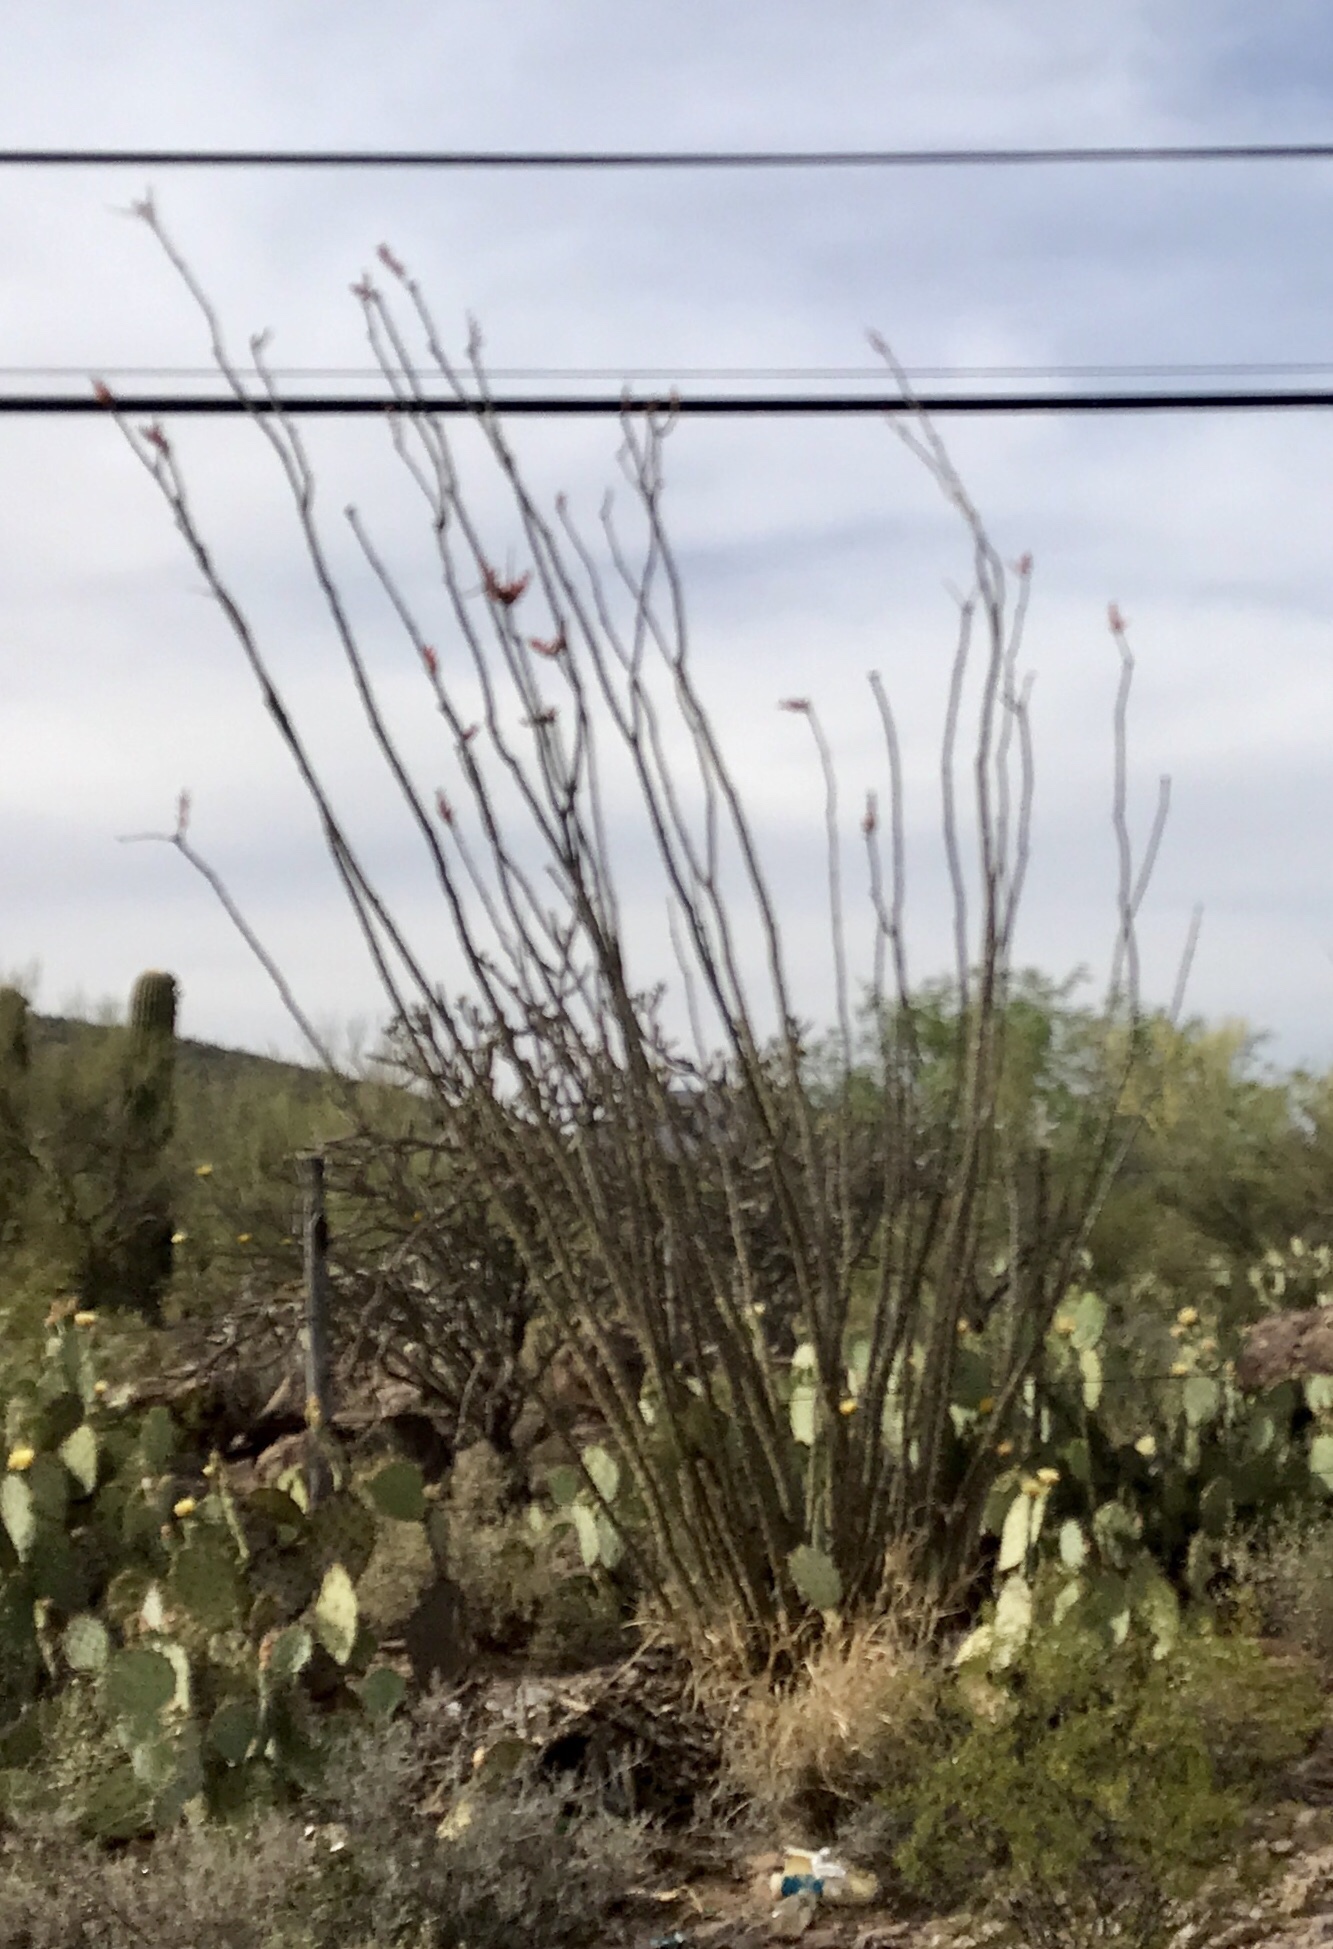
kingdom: Plantae
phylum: Tracheophyta
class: Magnoliopsida
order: Ericales
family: Fouquieriaceae
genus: Fouquieria
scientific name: Fouquieria splendens
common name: Vine-cactus
